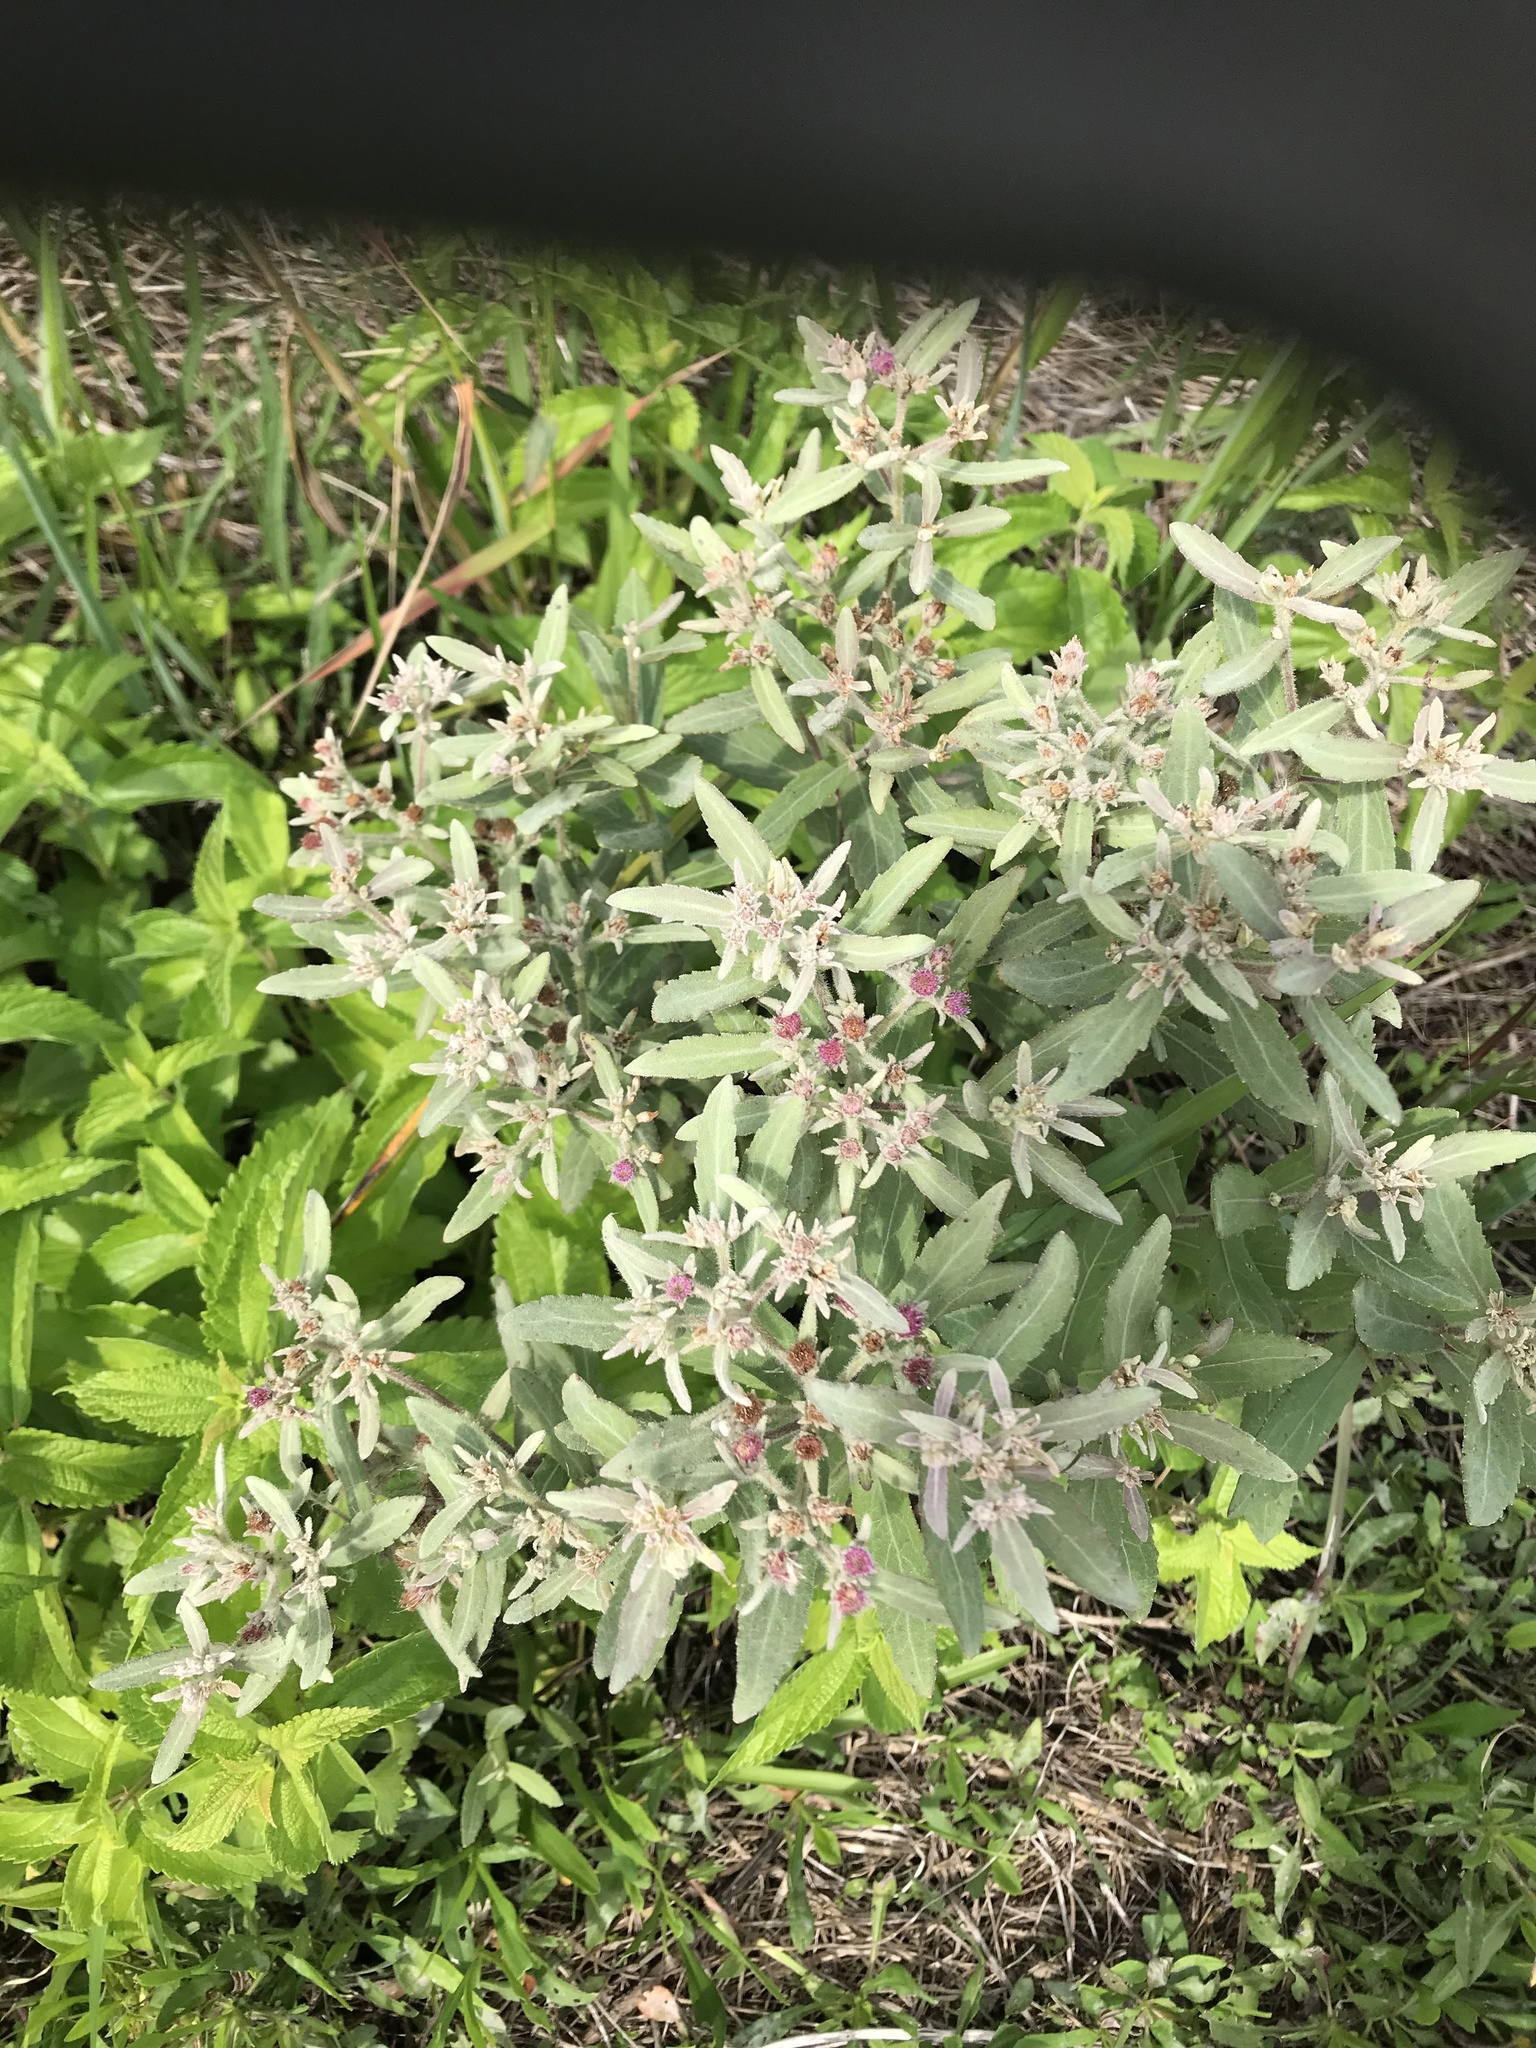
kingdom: Plantae
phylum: Tracheophyta
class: Magnoliopsida
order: Asterales
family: Asteraceae
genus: Pluchea
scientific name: Pluchea baccharis
